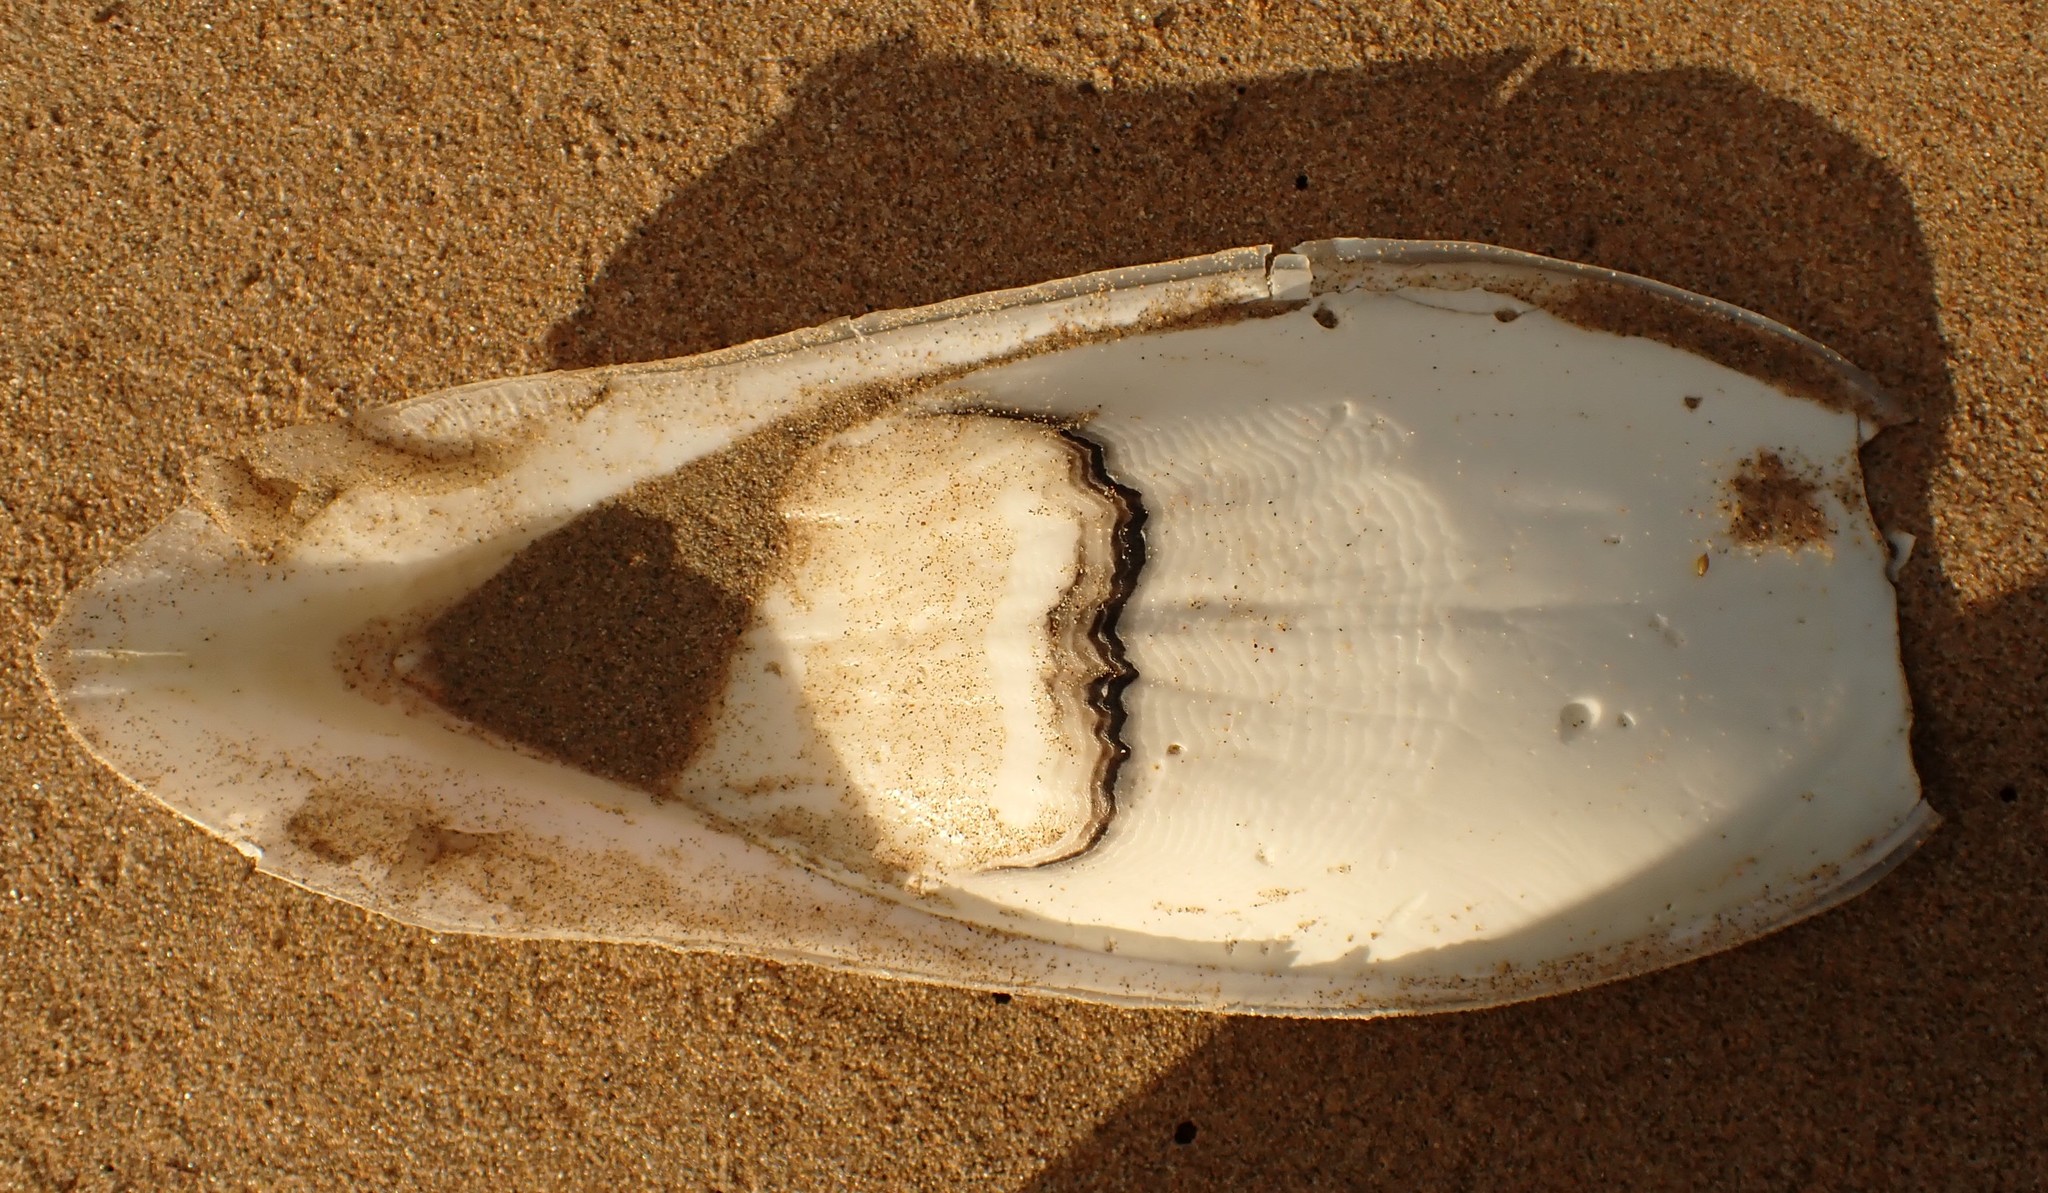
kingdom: Animalia
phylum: Mollusca
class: Cephalopoda
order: Sepiida
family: Sepiidae
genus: Ascarosepion
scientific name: Ascarosepion apama
